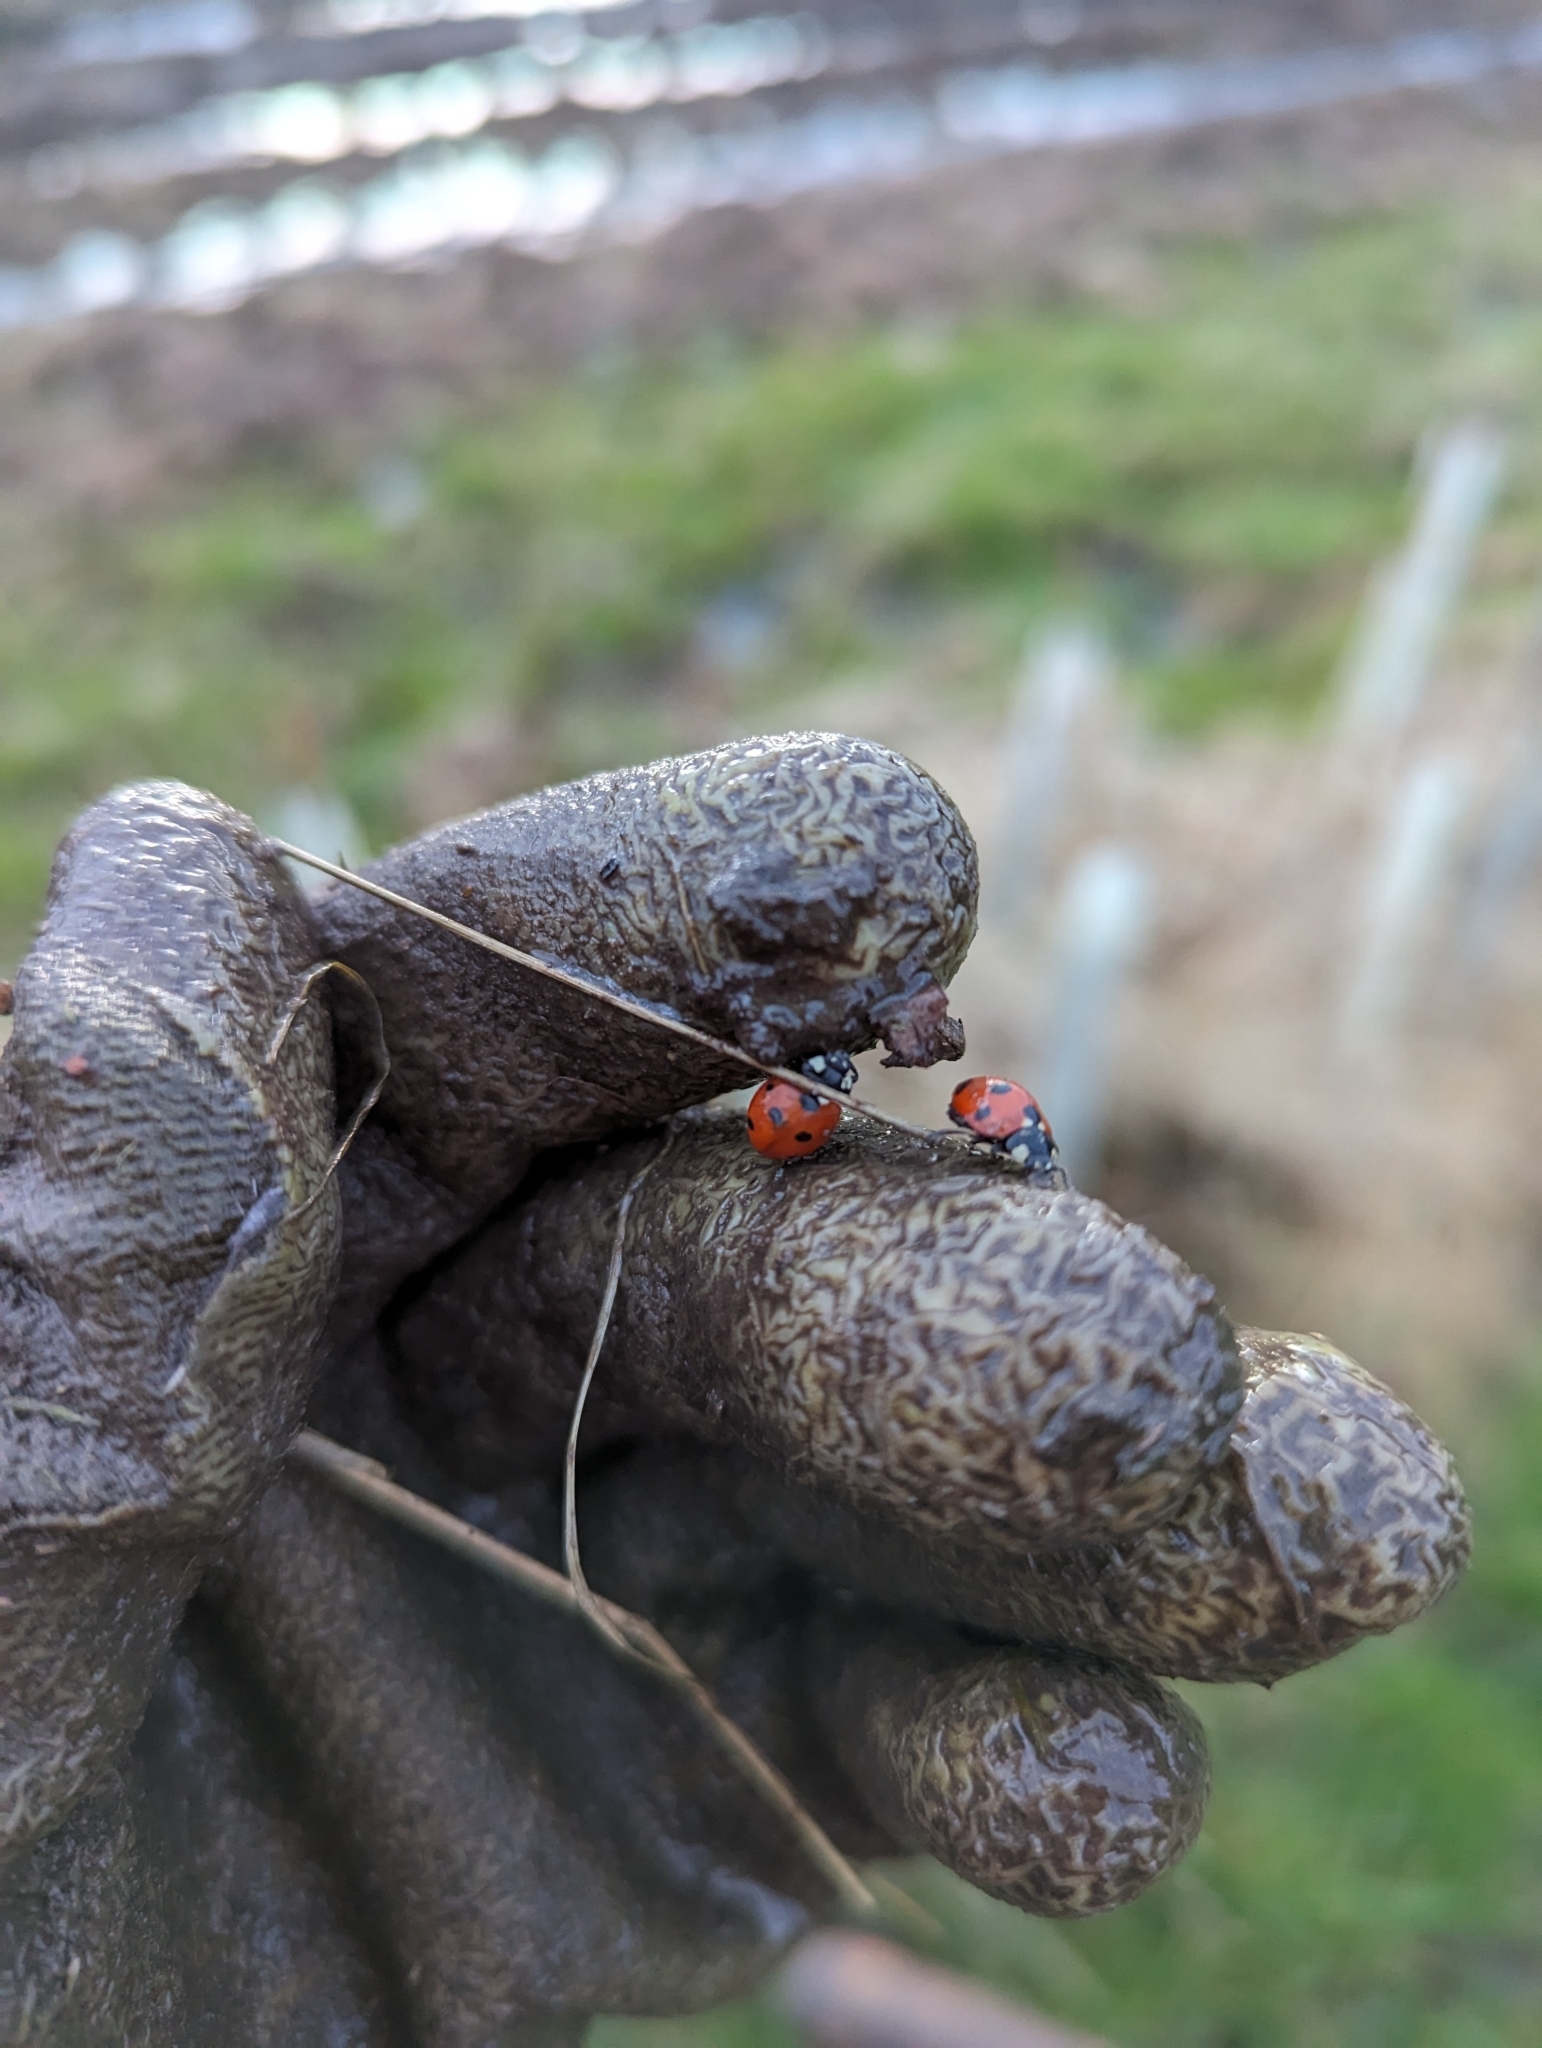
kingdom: Animalia
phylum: Arthropoda
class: Insecta
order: Coleoptera
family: Coccinellidae
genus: Coccinella
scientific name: Coccinella septempunctata
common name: Sevenspotted lady beetle
